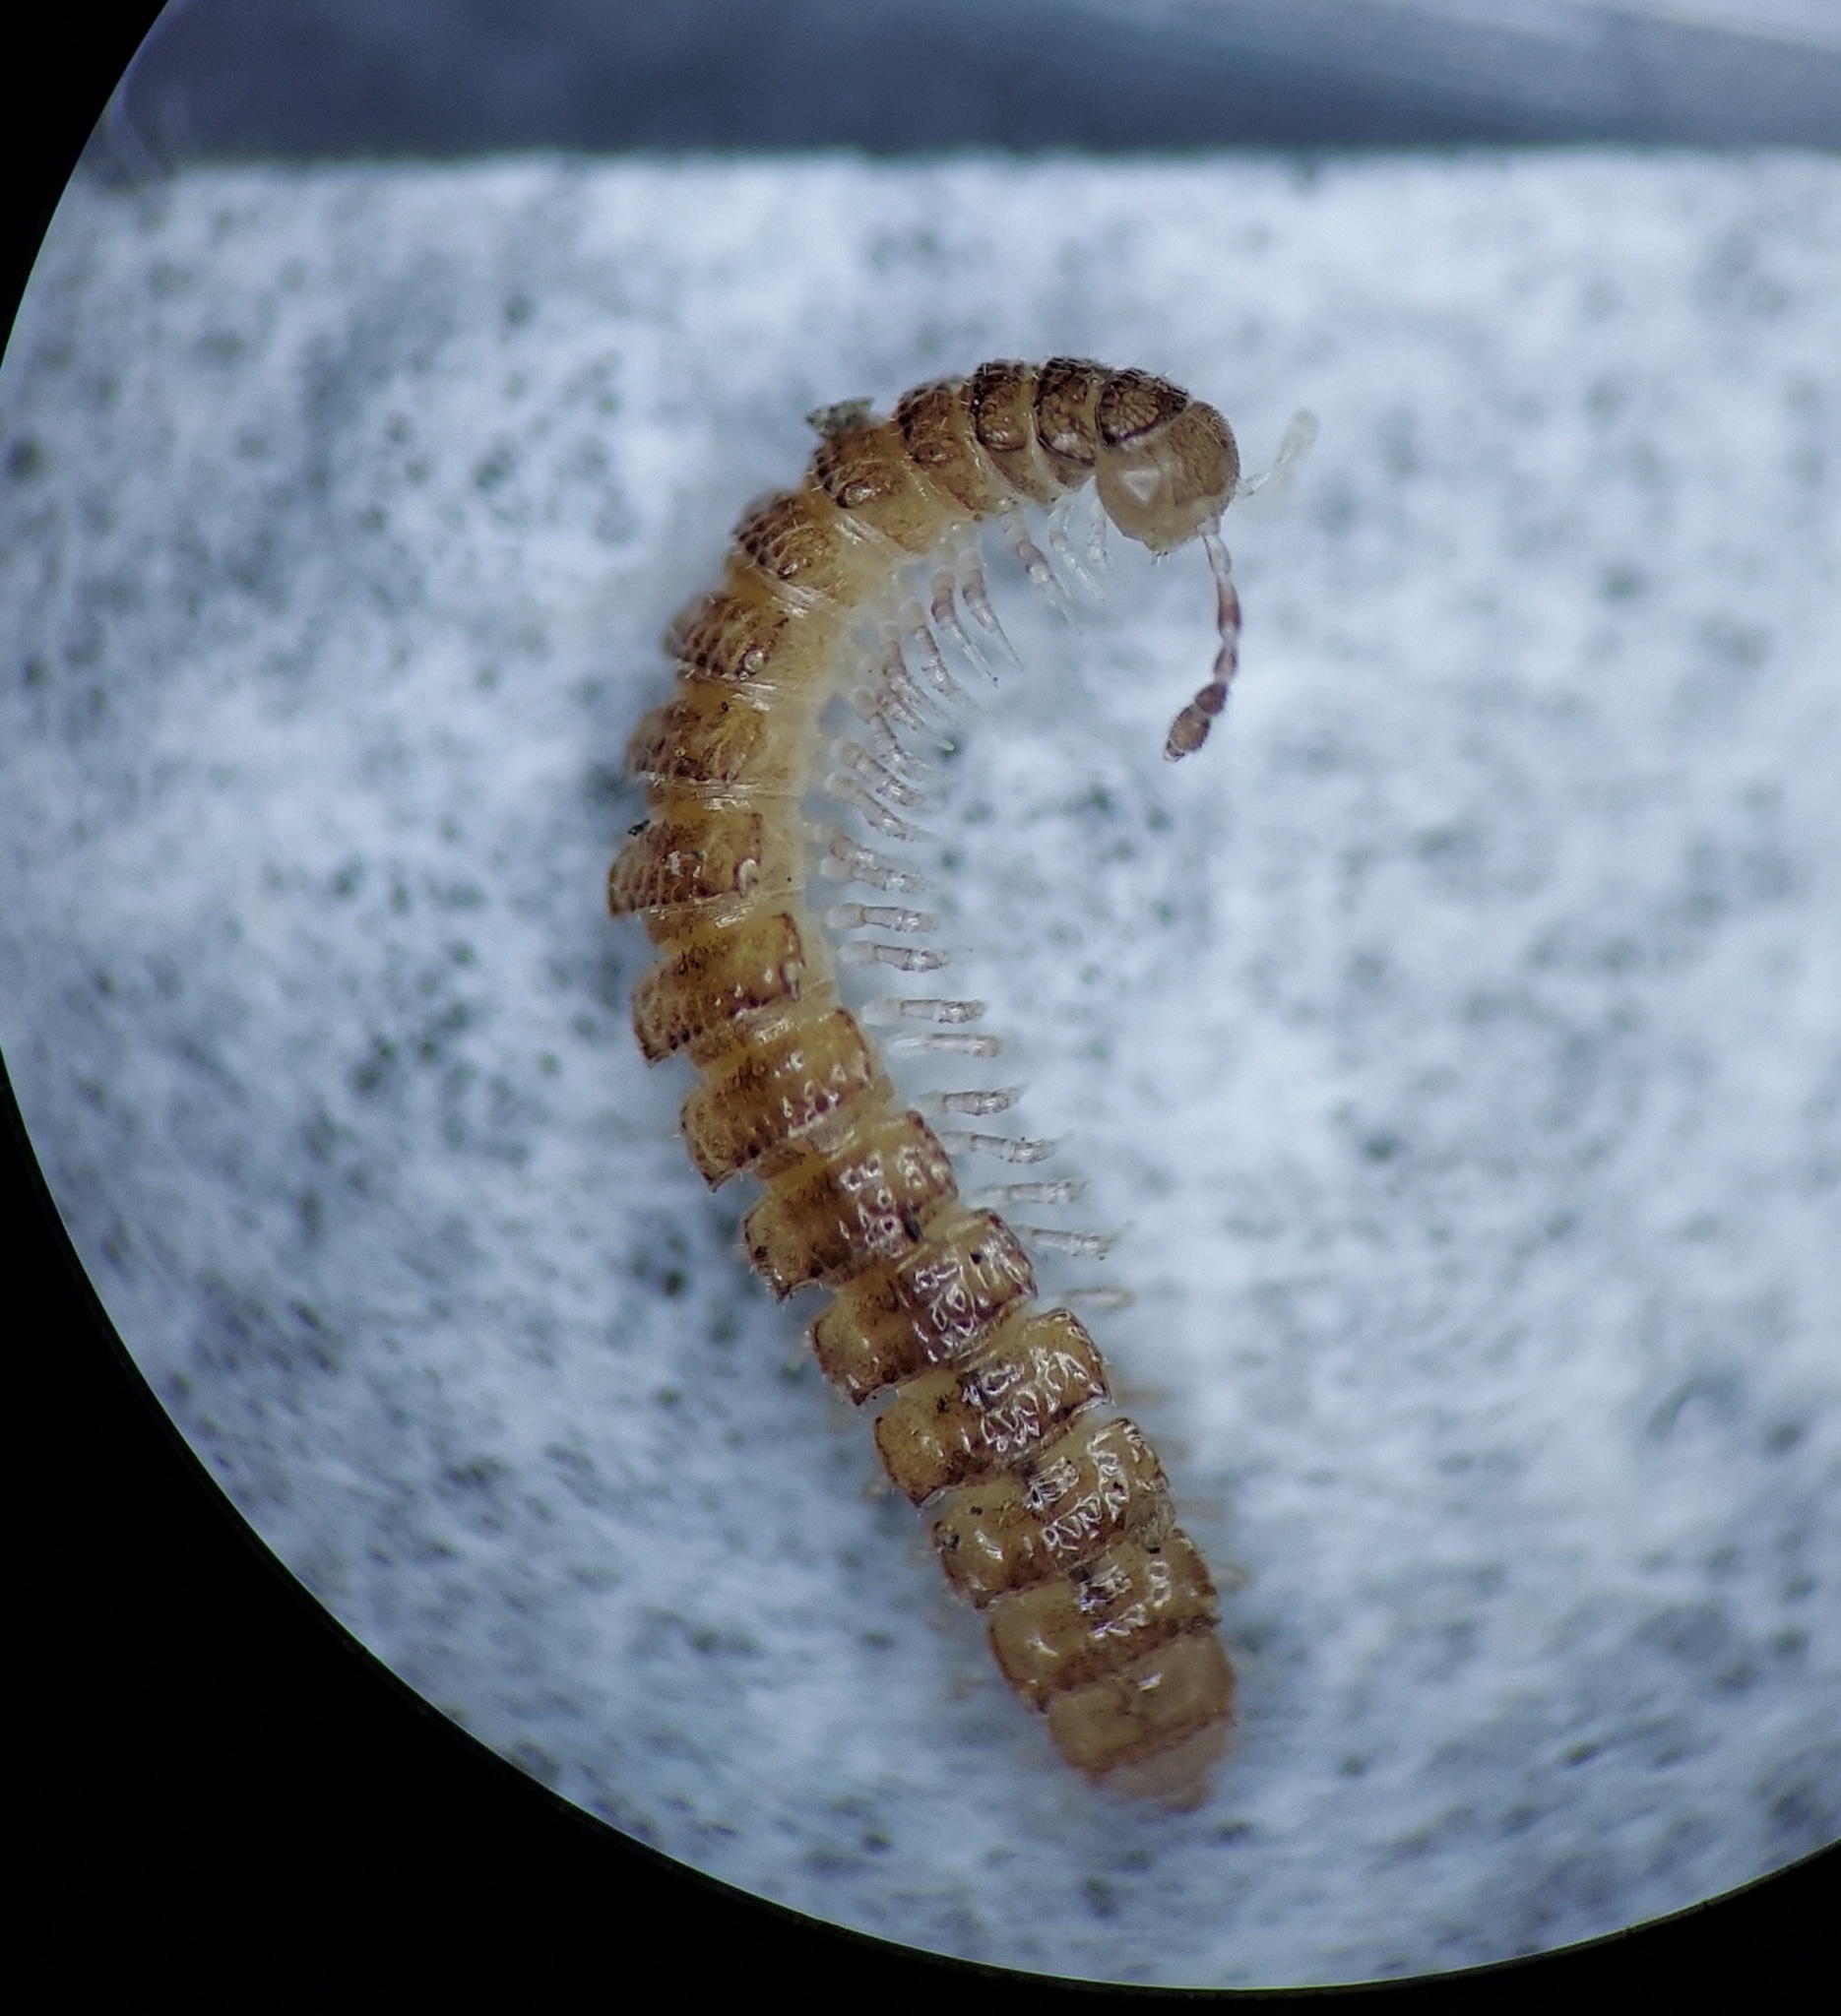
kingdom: Animalia
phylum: Arthropoda
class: Diplopoda
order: Polydesmida
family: Polydesmidae
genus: Brachydesmus
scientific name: Brachydesmus superus
